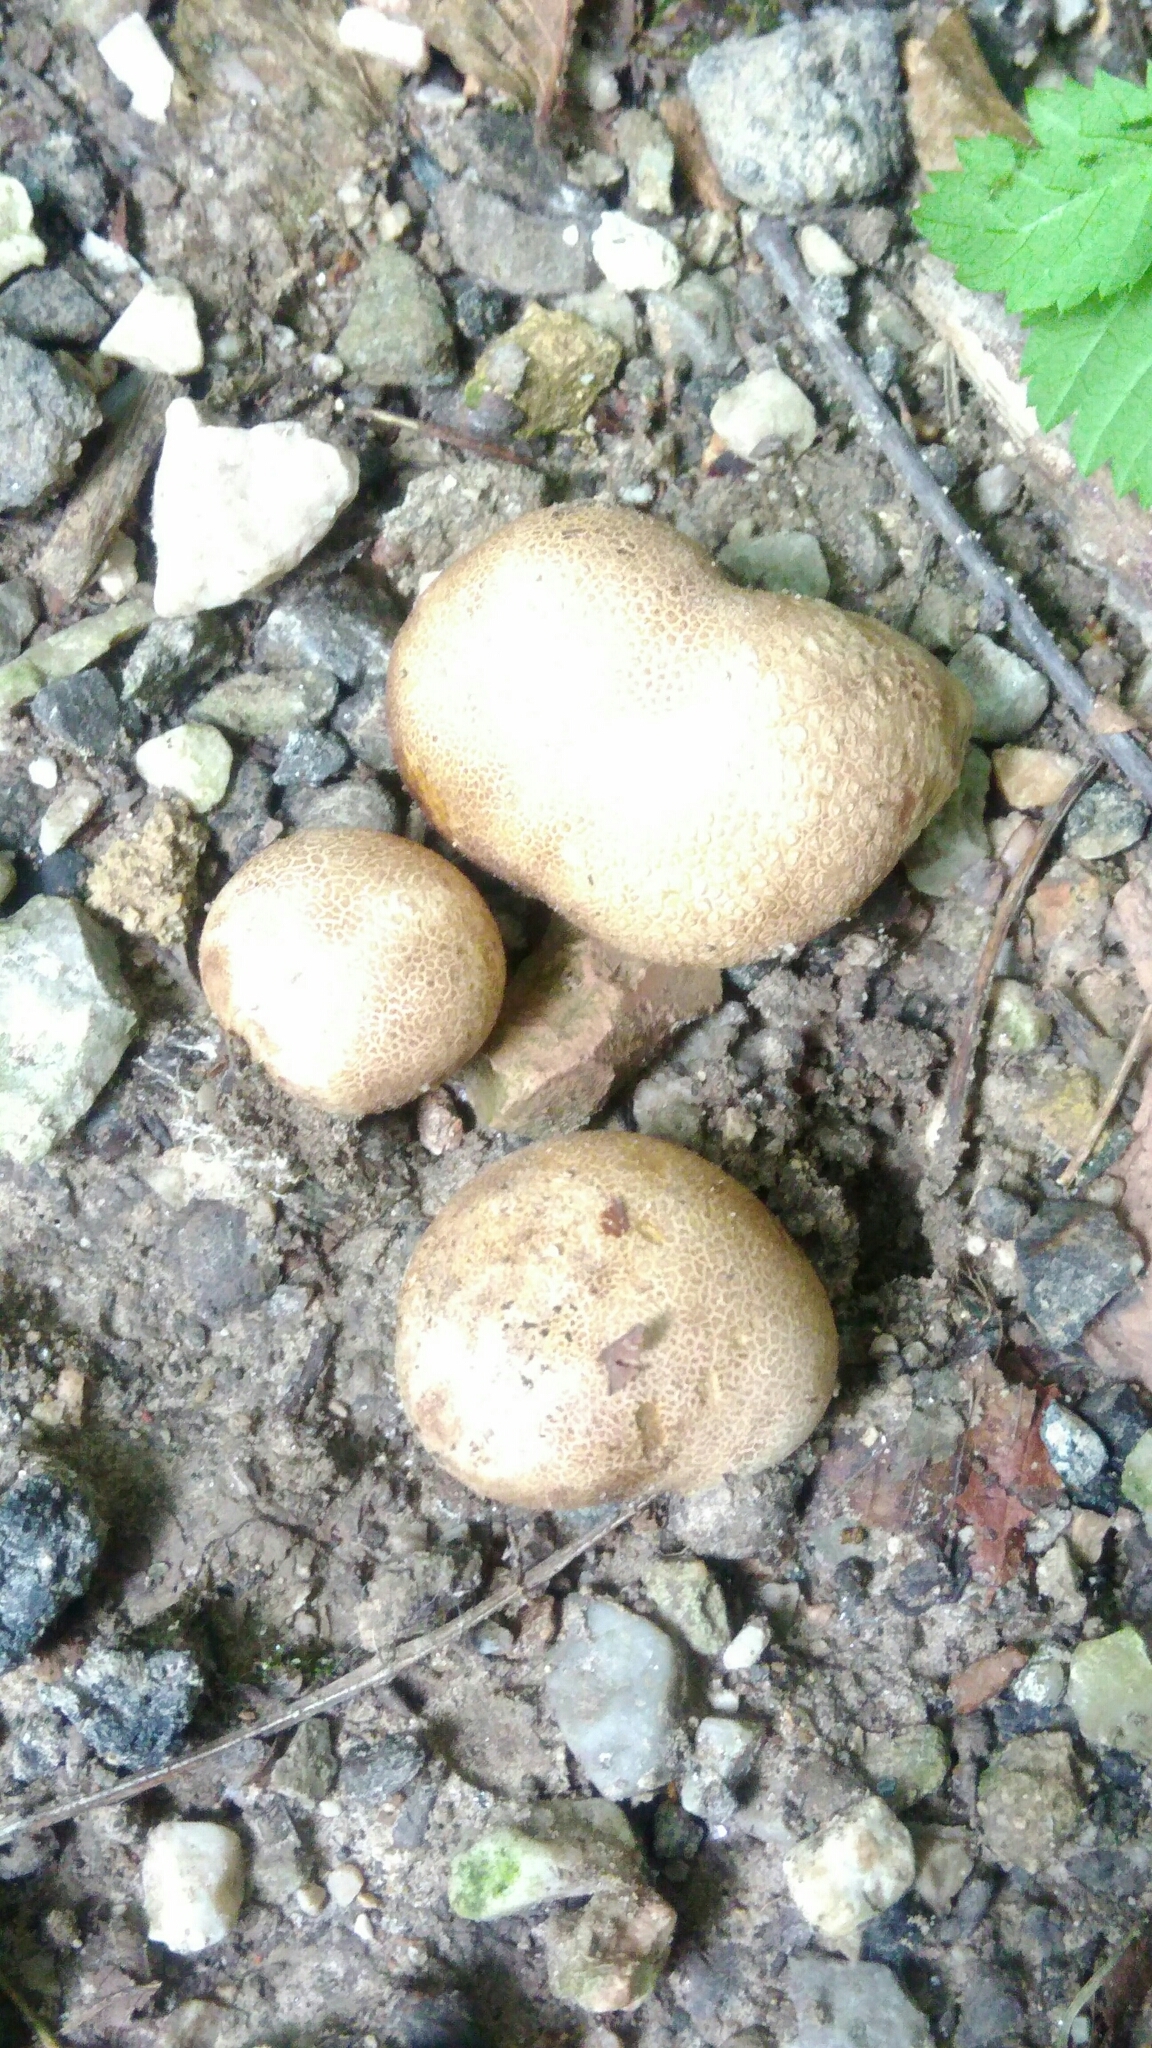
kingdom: Fungi
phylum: Basidiomycota
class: Agaricomycetes
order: Boletales
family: Sclerodermataceae
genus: Scleroderma
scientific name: Scleroderma citrinum
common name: Common earthball
